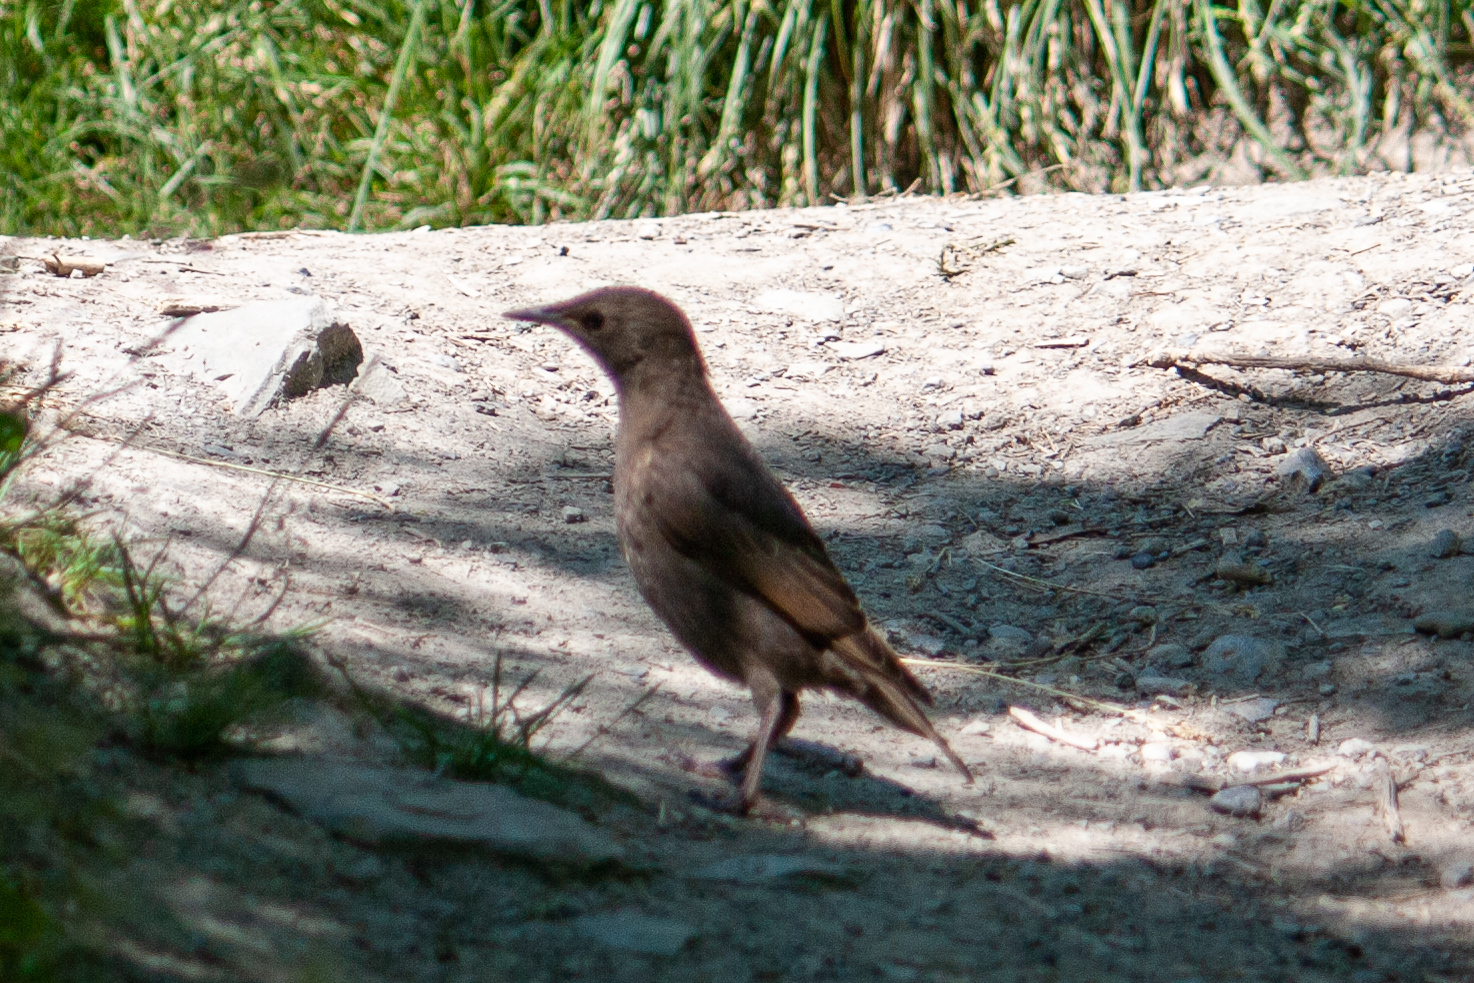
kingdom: Animalia
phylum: Chordata
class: Aves
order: Passeriformes
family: Sturnidae
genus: Sturnus
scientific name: Sturnus vulgaris
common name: Common starling
